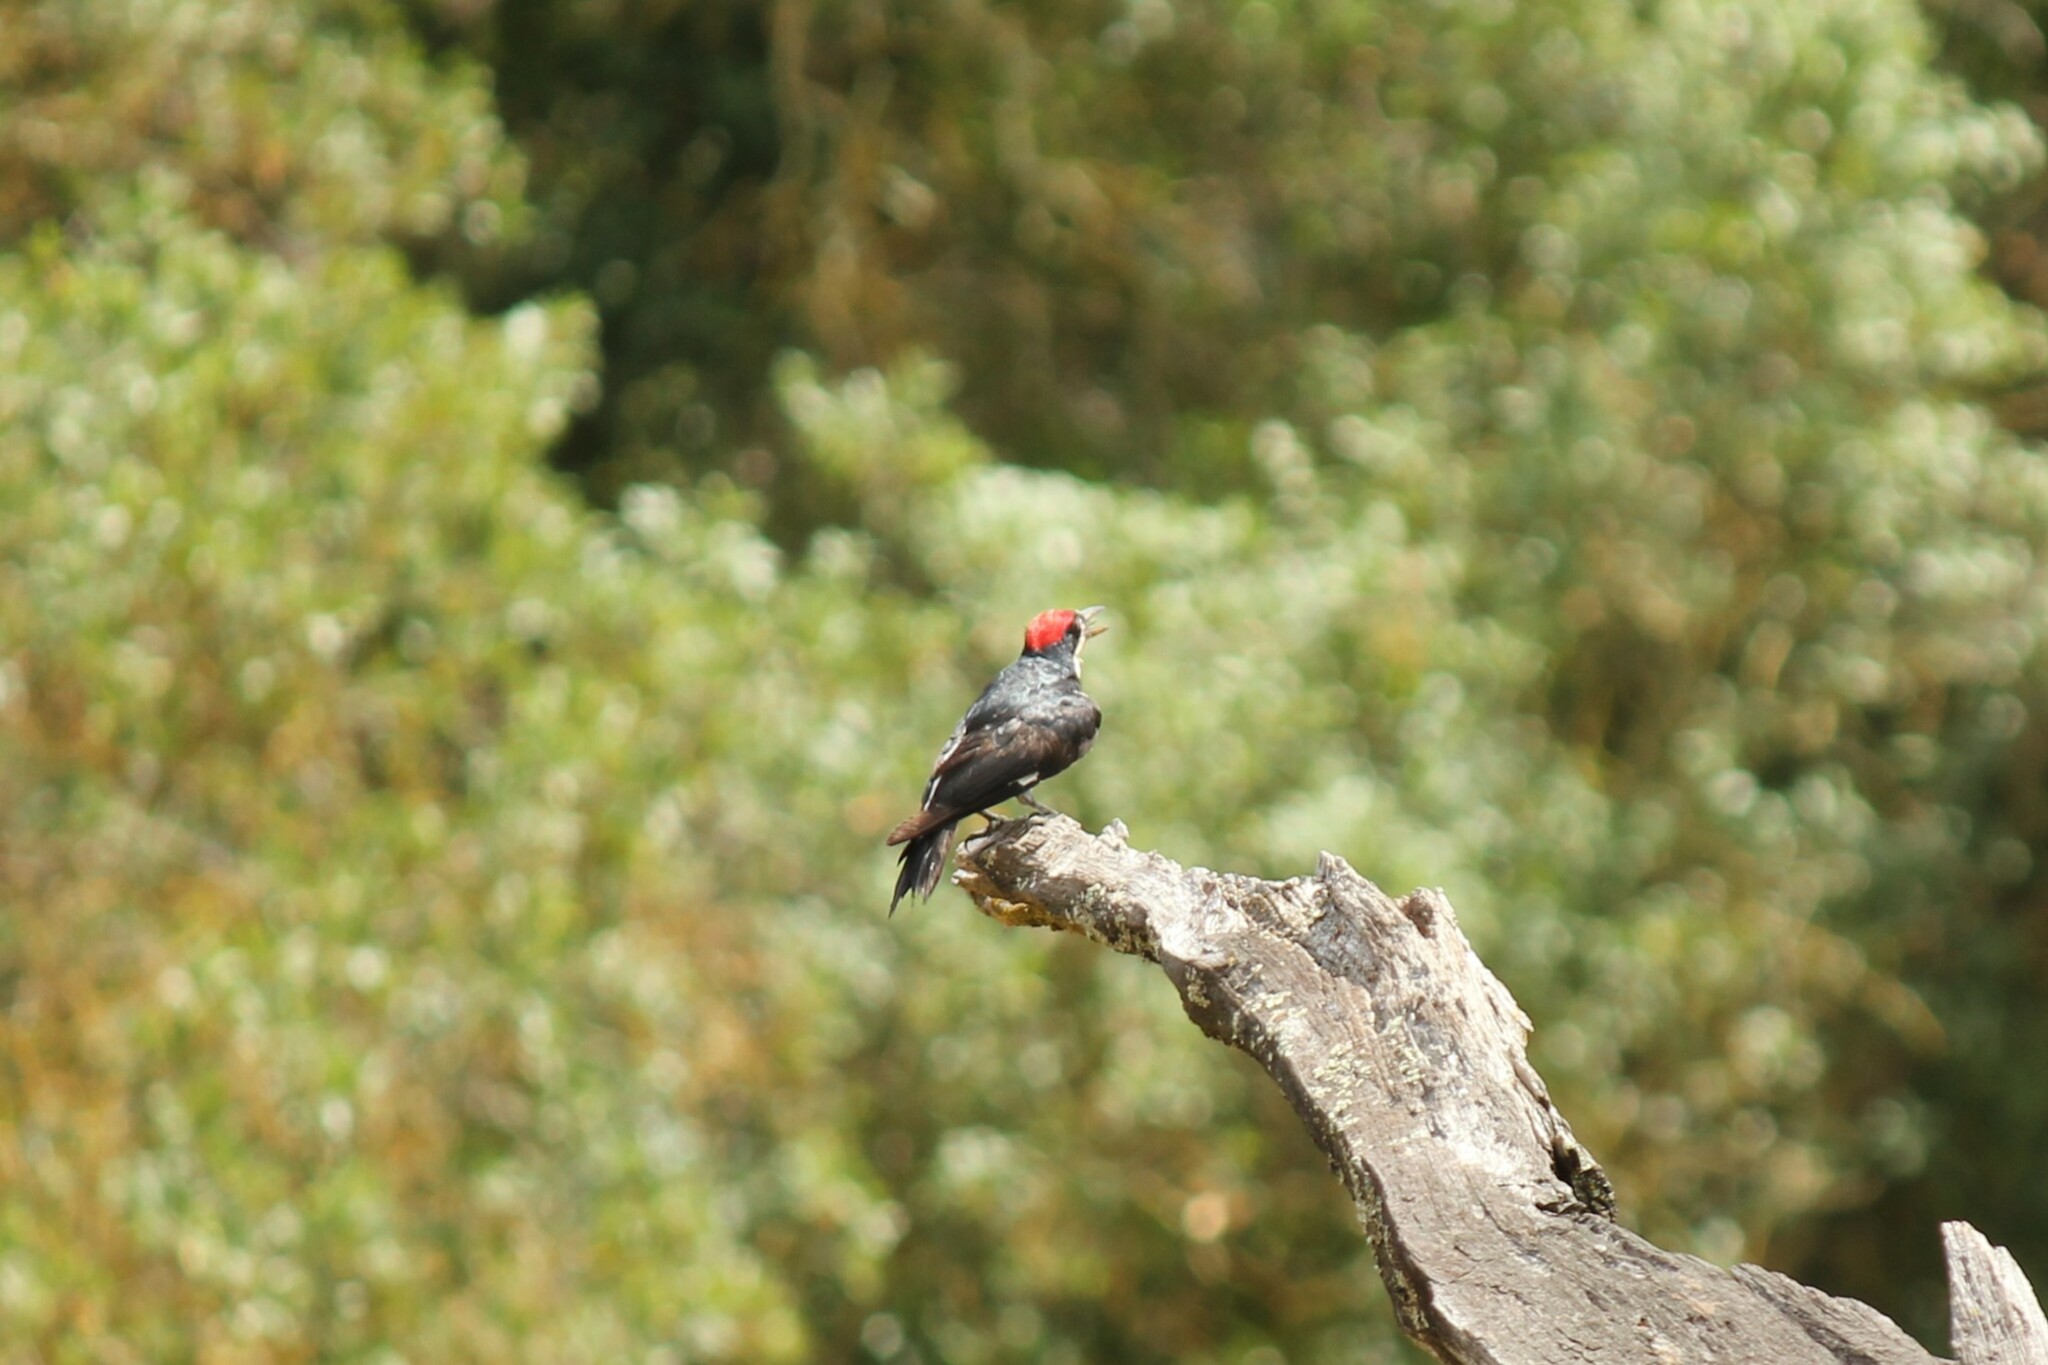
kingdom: Animalia
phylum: Chordata
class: Aves
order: Piciformes
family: Picidae
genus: Melanerpes
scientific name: Melanerpes formicivorus
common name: Acorn woodpecker
